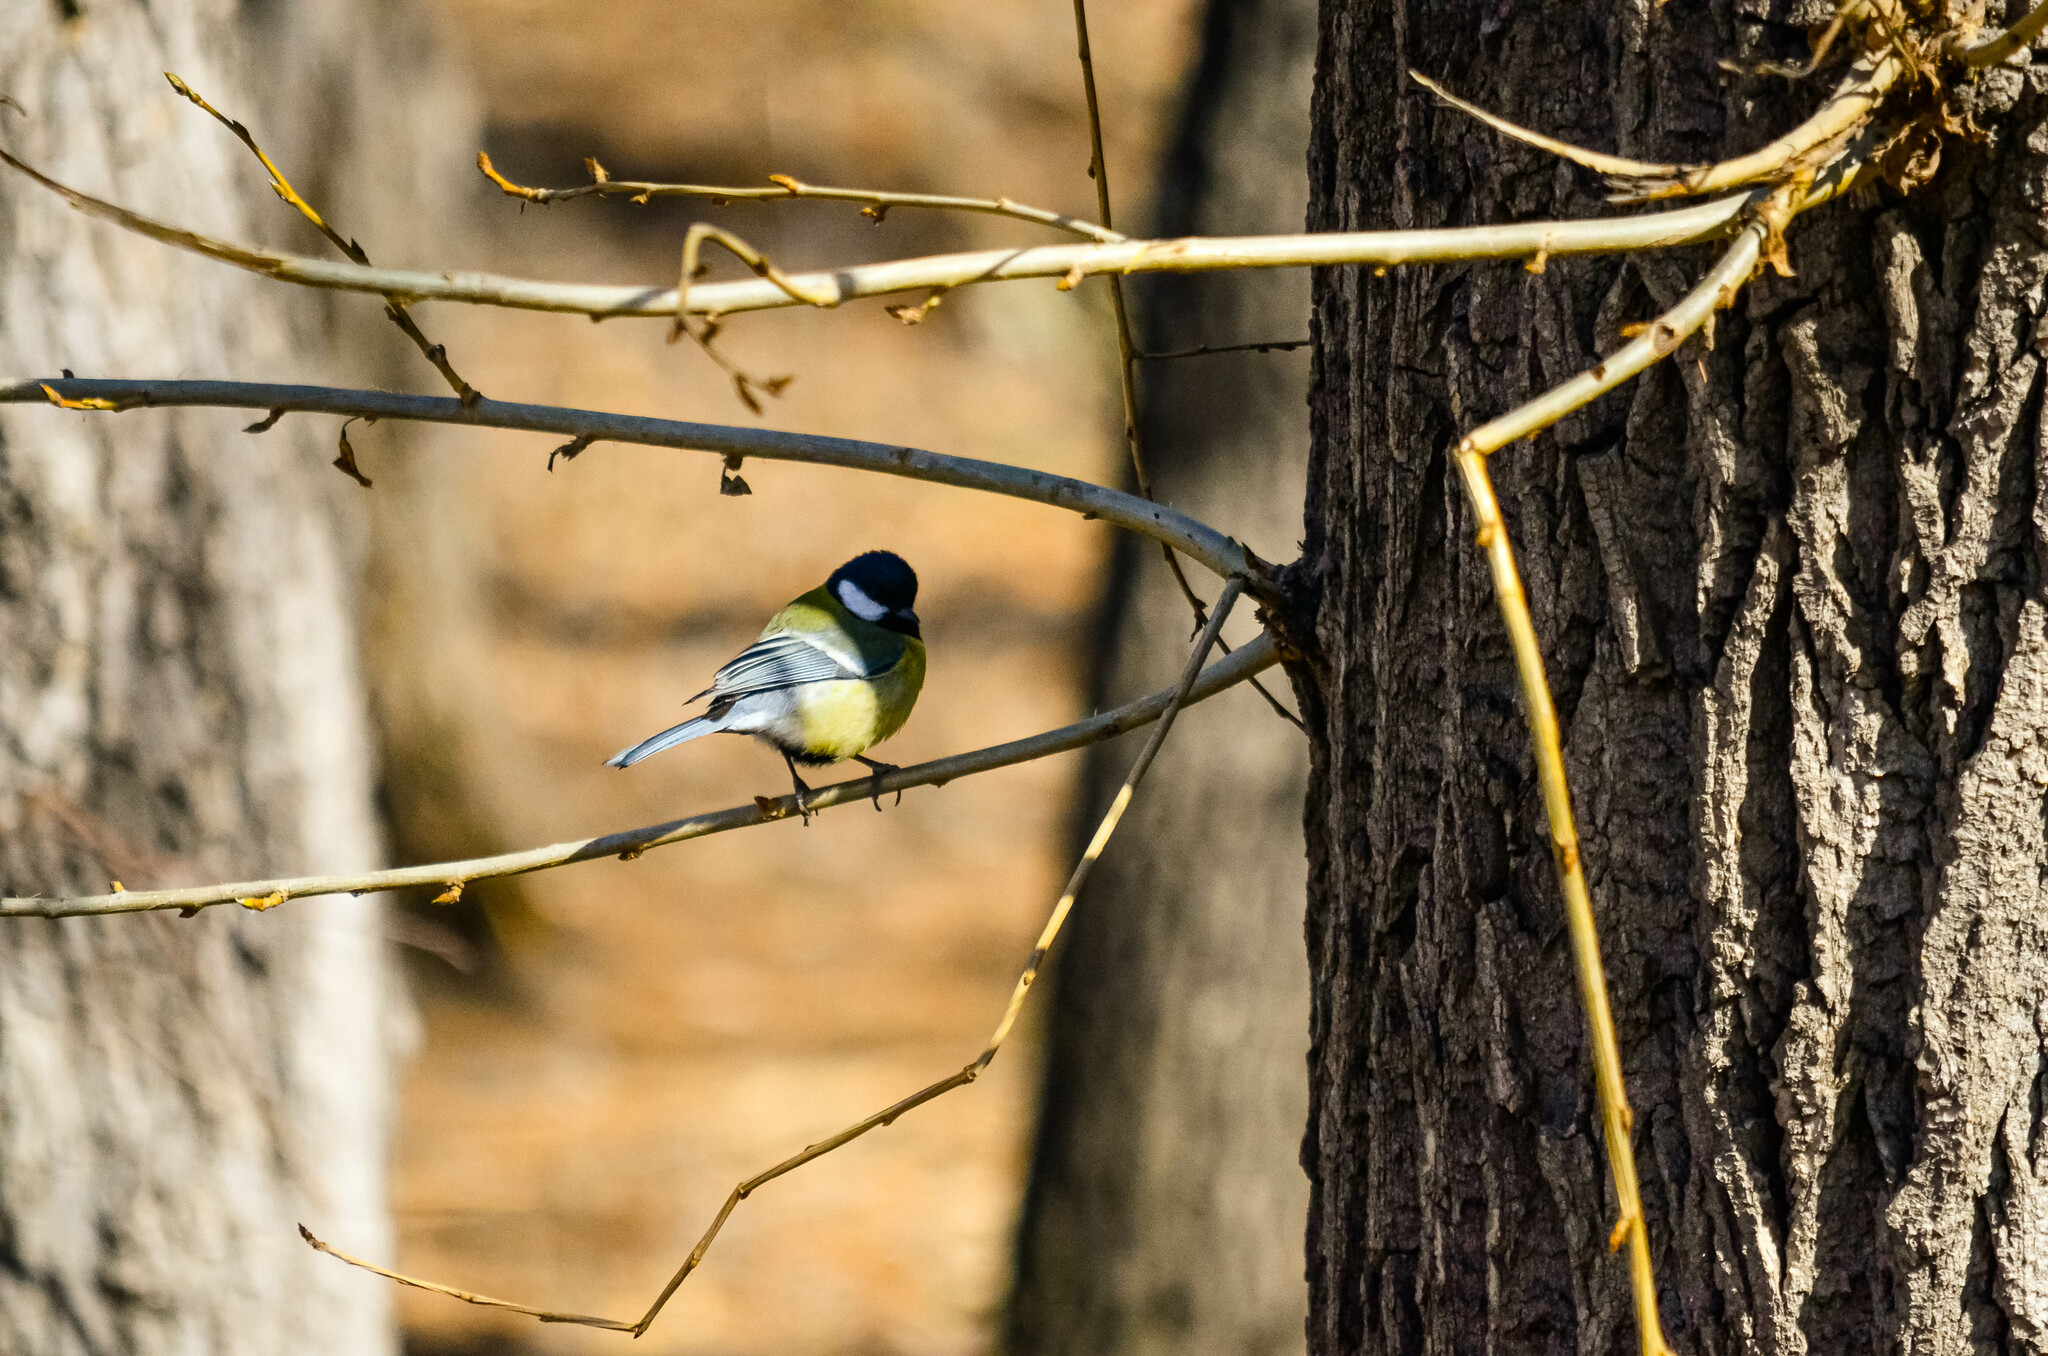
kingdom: Animalia
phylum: Chordata
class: Aves
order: Passeriformes
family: Paridae
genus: Parus
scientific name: Parus major
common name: Great tit
